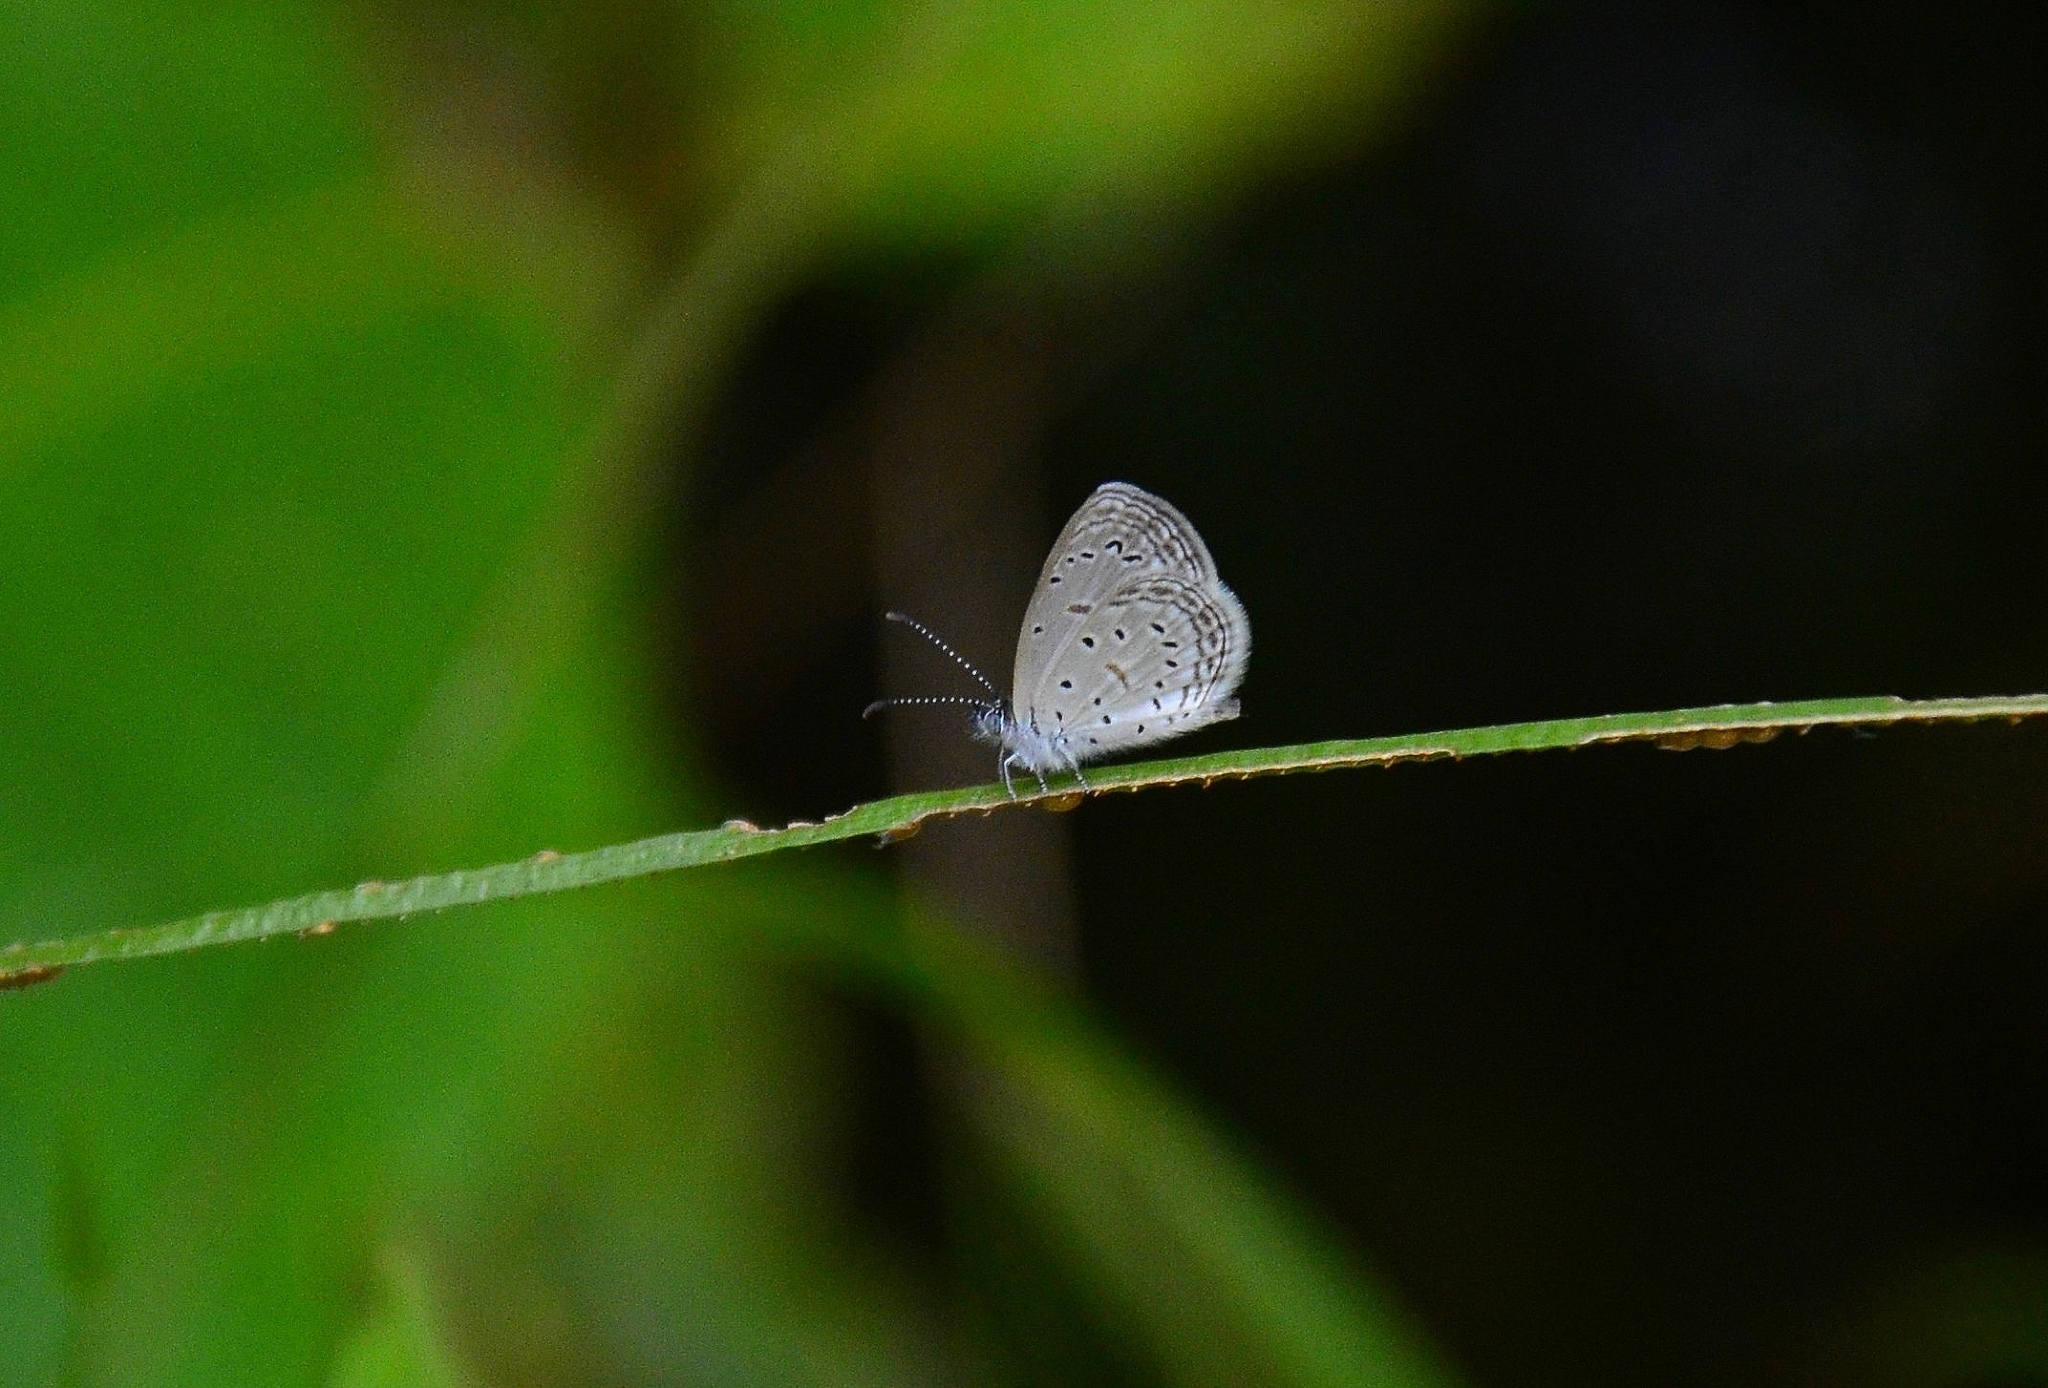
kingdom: Animalia
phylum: Arthropoda
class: Insecta
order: Lepidoptera
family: Lycaenidae
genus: Zizula
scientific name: Zizula hylax
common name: Gaika blue
